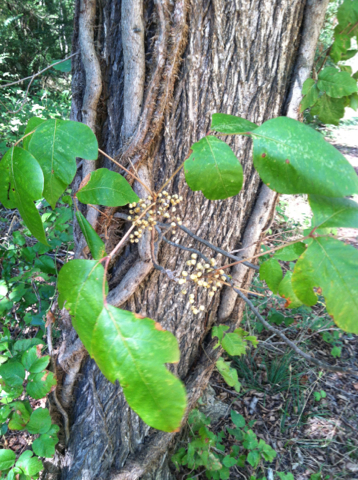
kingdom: Plantae
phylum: Tracheophyta
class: Magnoliopsida
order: Sapindales
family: Anacardiaceae
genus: Toxicodendron
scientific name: Toxicodendron radicans
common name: Poison ivy
